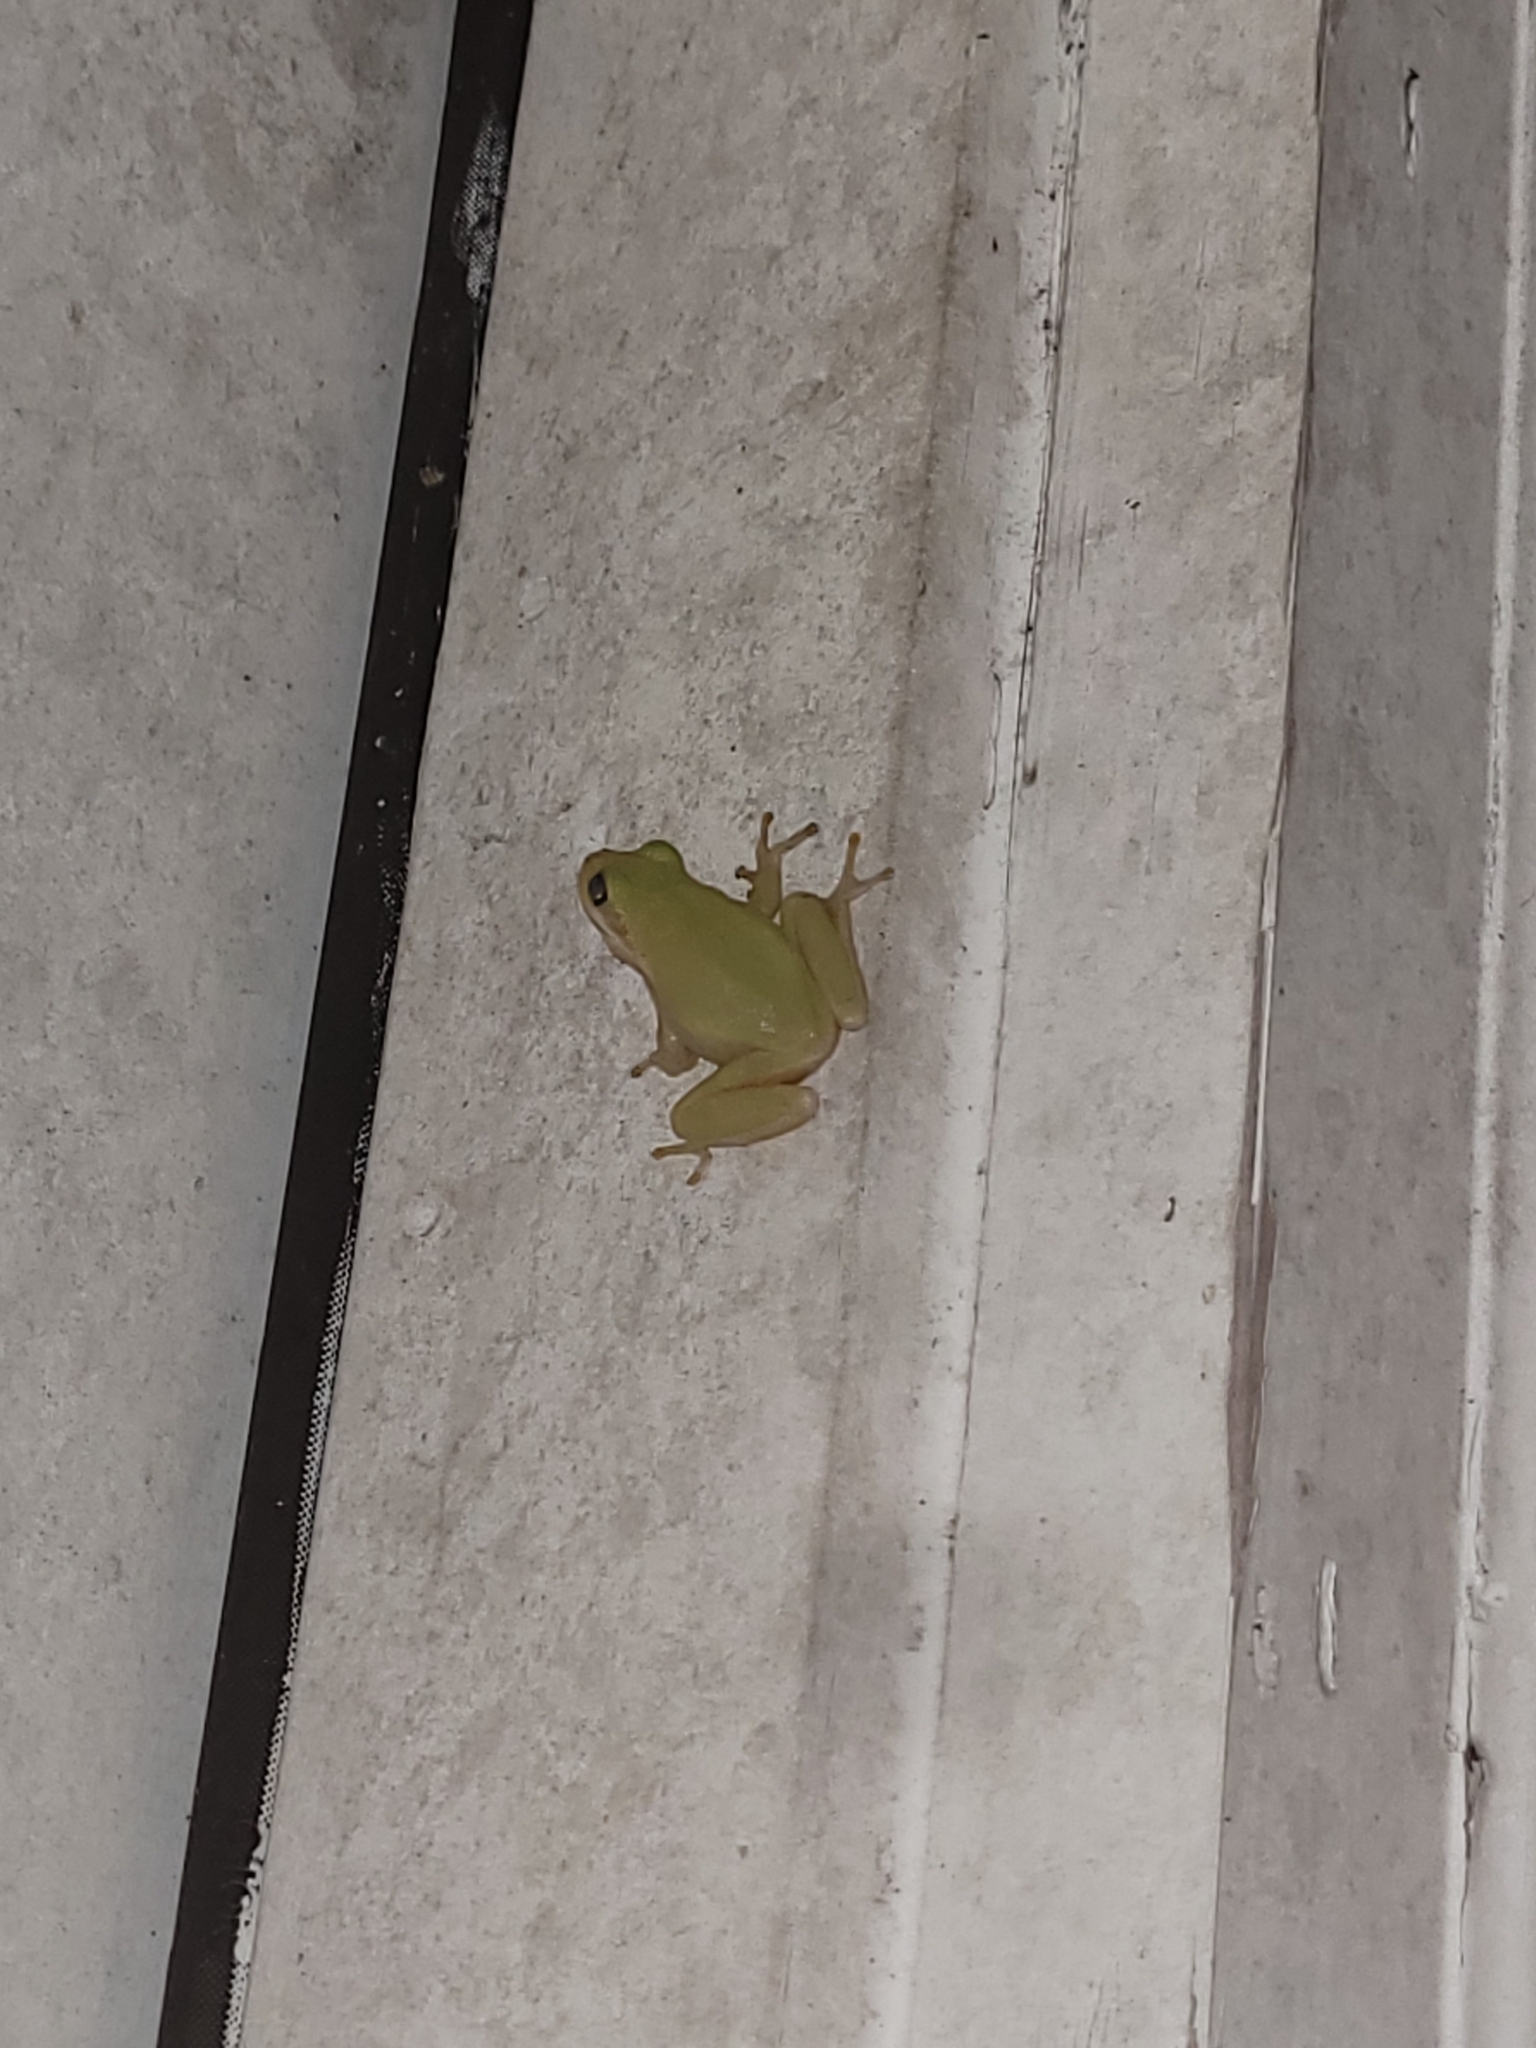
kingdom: Animalia
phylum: Chordata
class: Amphibia
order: Anura
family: Hylidae
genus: Dryophytes
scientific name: Dryophytes squirellus
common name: Squirrel treefrog
